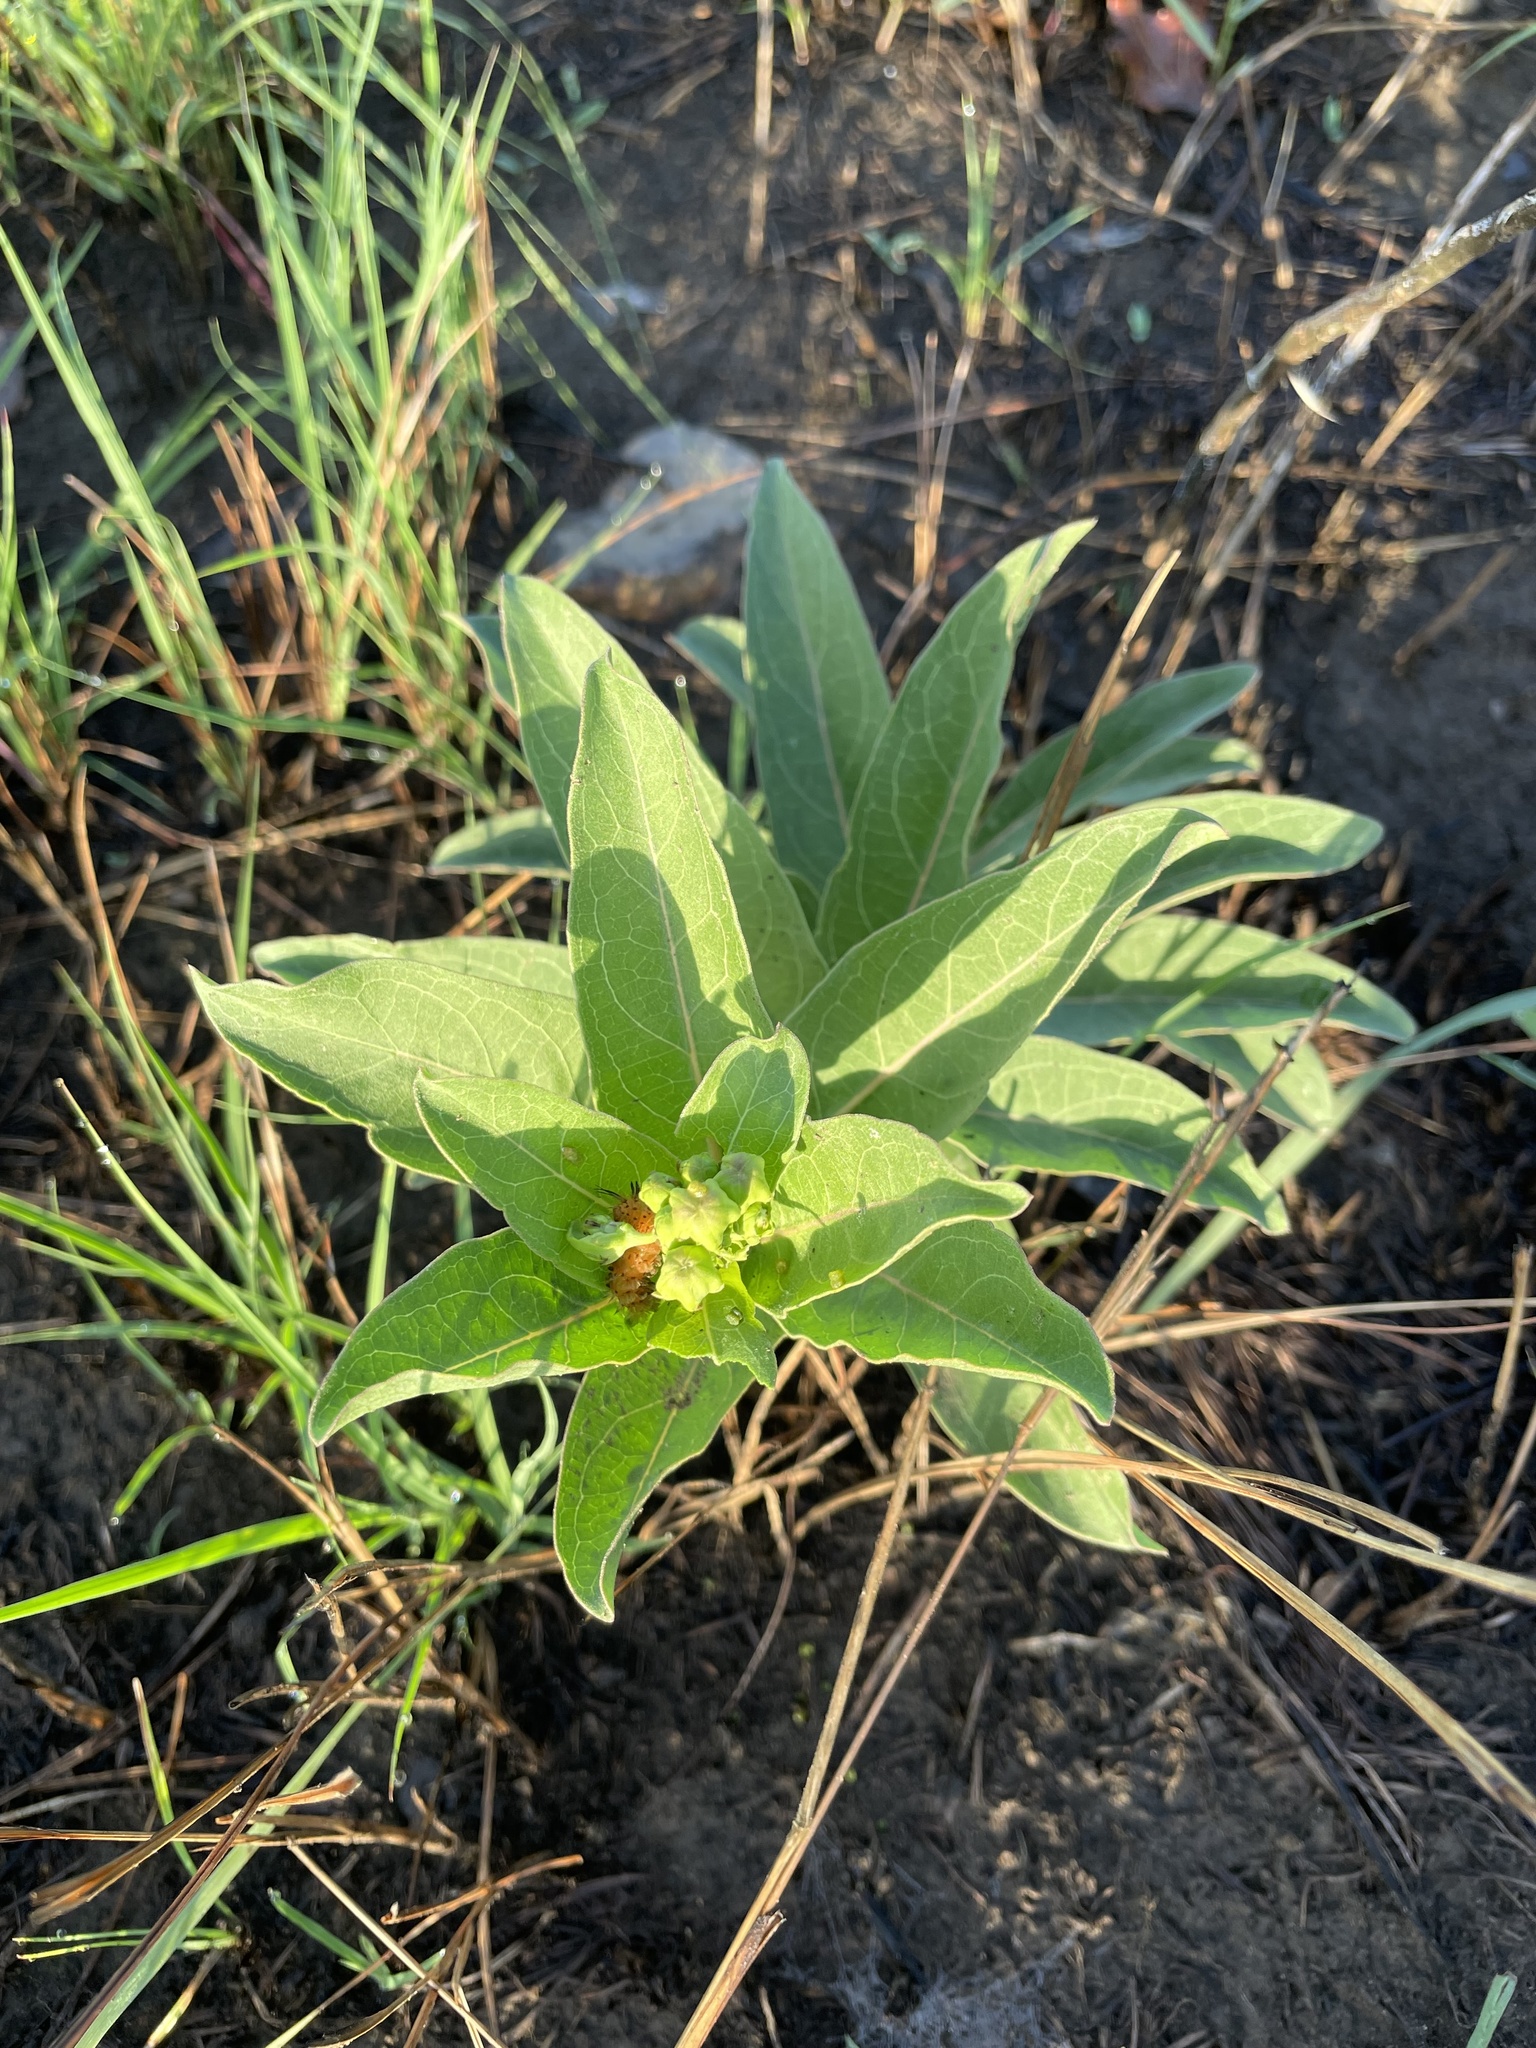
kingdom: Animalia
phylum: Arthropoda
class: Insecta
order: Lepidoptera
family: Erebidae
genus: Cycnia
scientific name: Cycnia collaris
